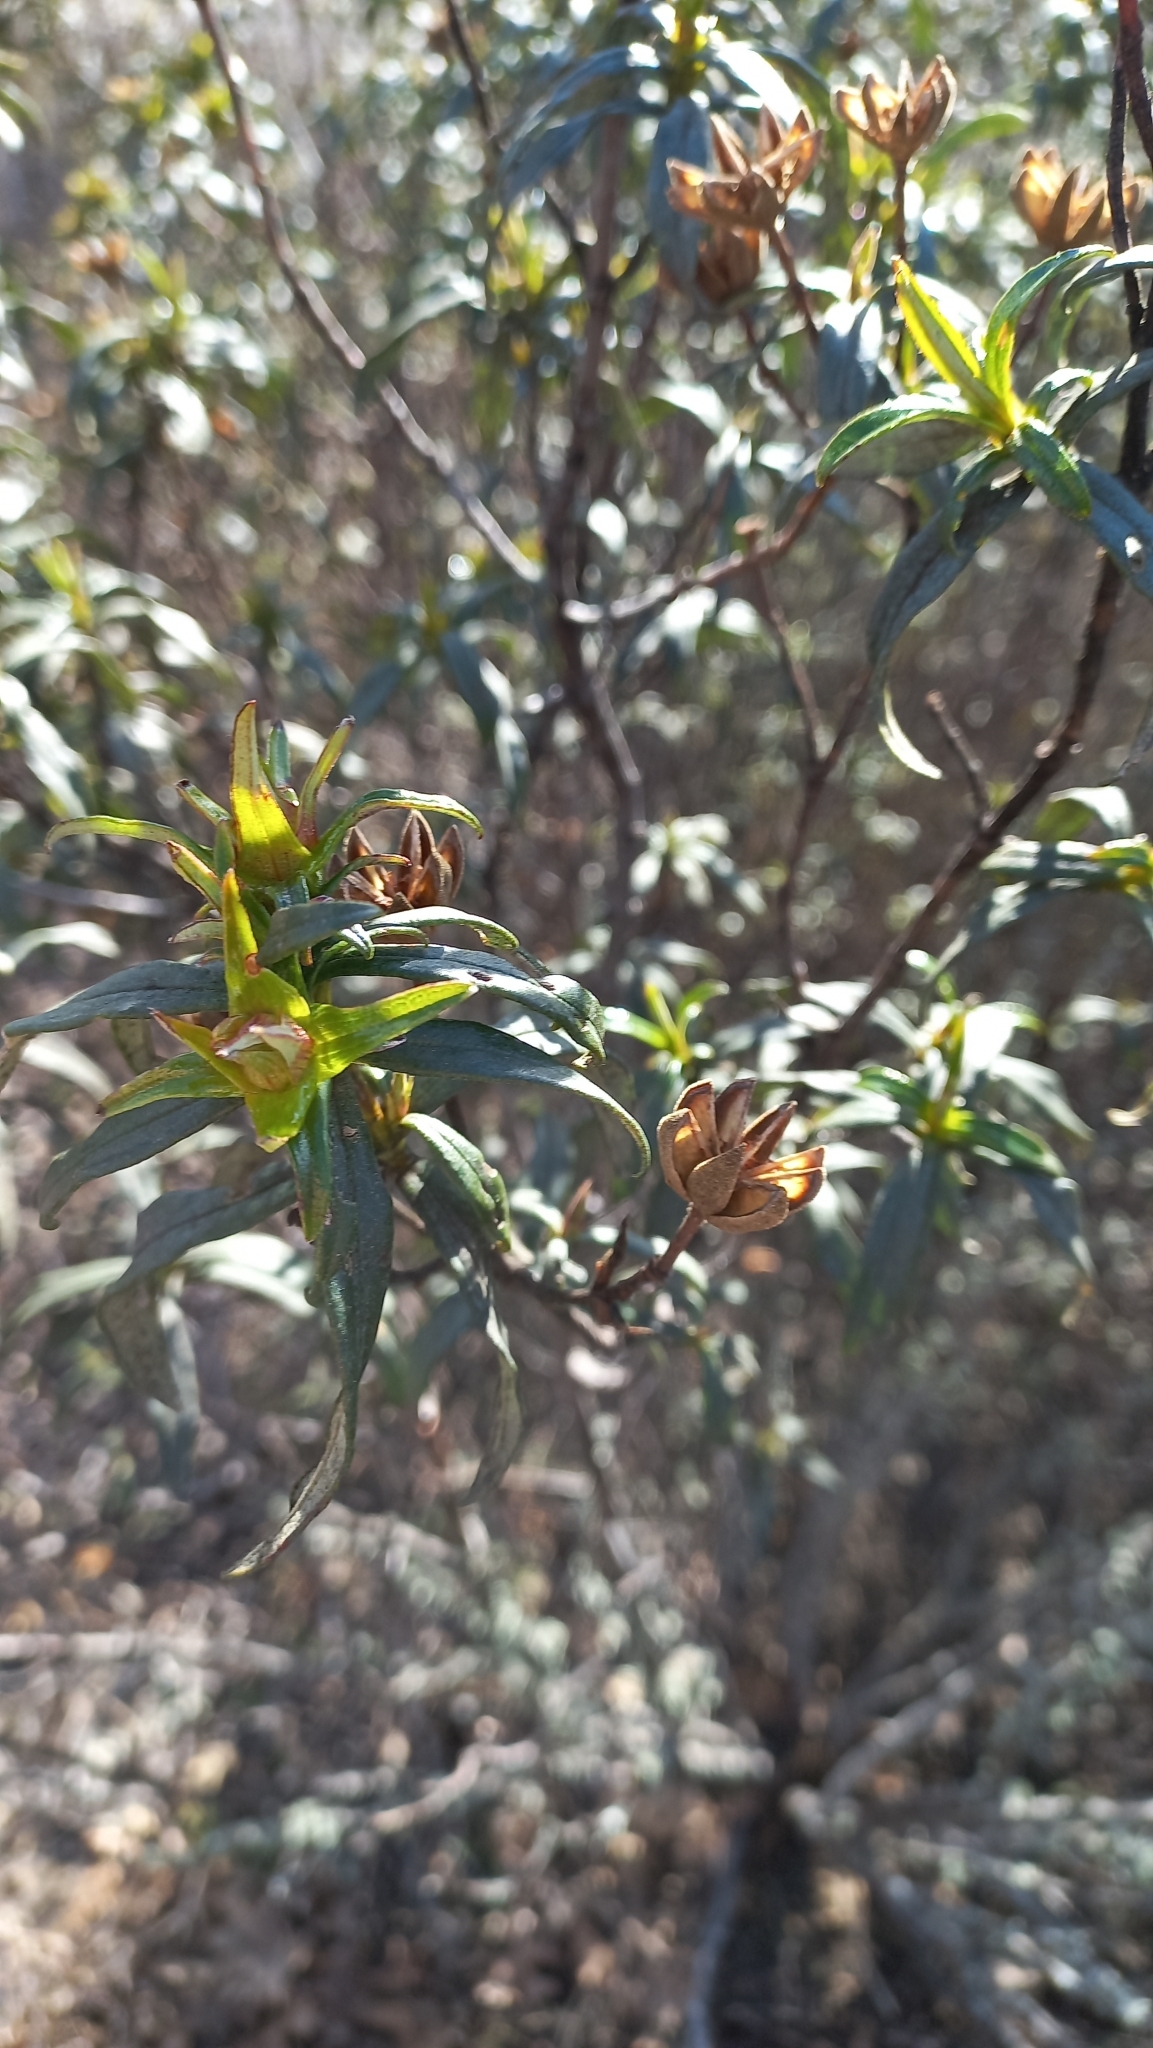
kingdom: Plantae
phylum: Tracheophyta
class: Magnoliopsida
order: Malvales
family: Cistaceae
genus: Cistus
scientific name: Cistus ladanifer
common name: Common gum cistus
